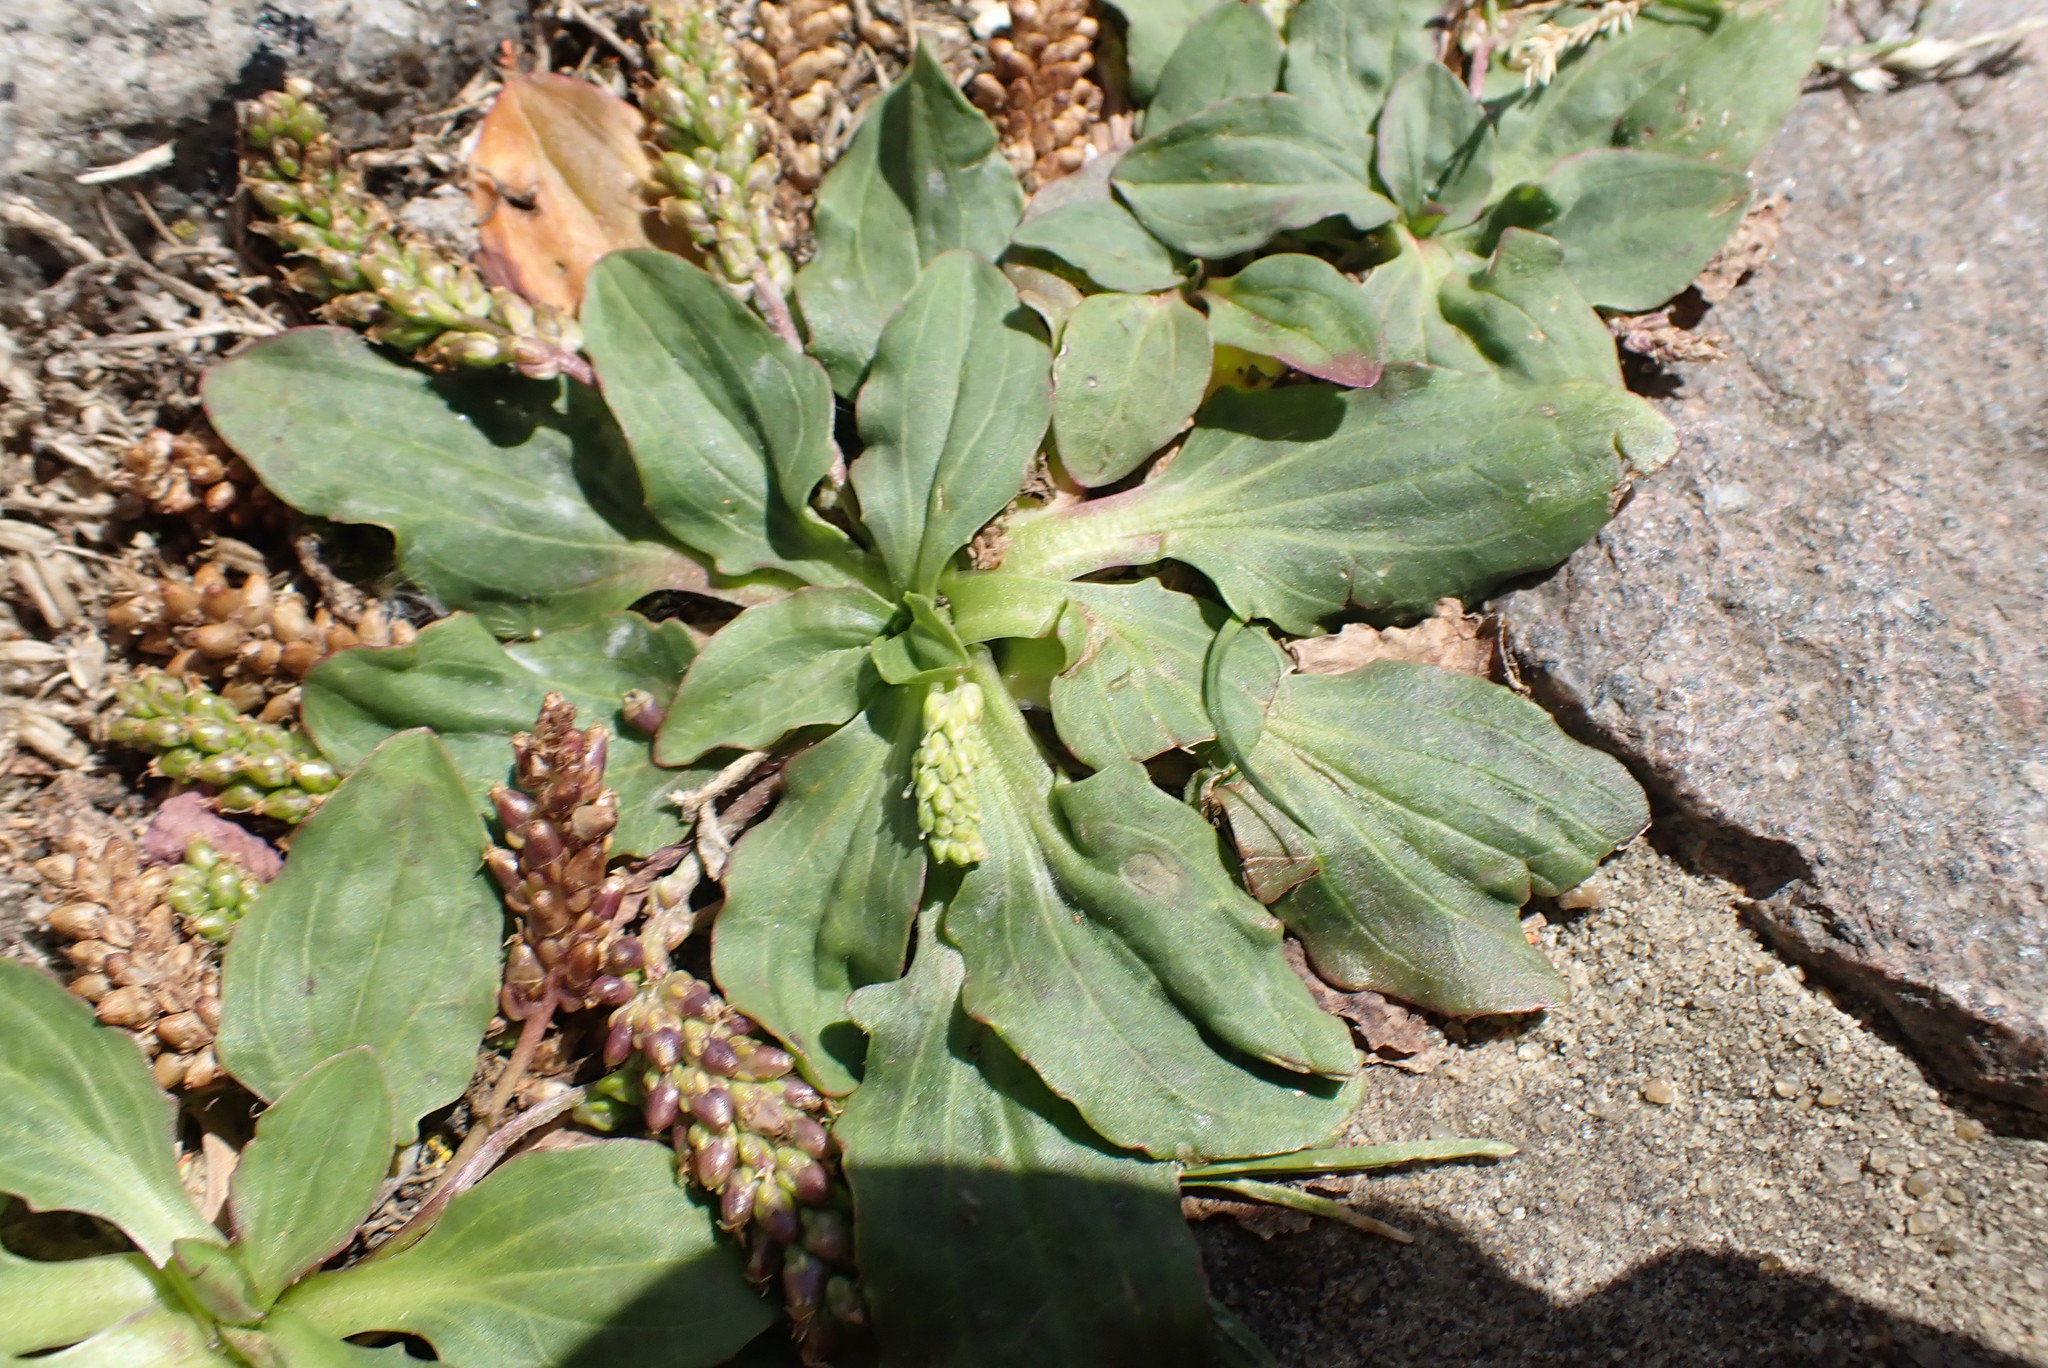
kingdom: Plantae
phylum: Tracheophyta
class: Magnoliopsida
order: Lamiales
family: Plantaginaceae
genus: Plantago
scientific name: Plantago major
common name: Common plantain
